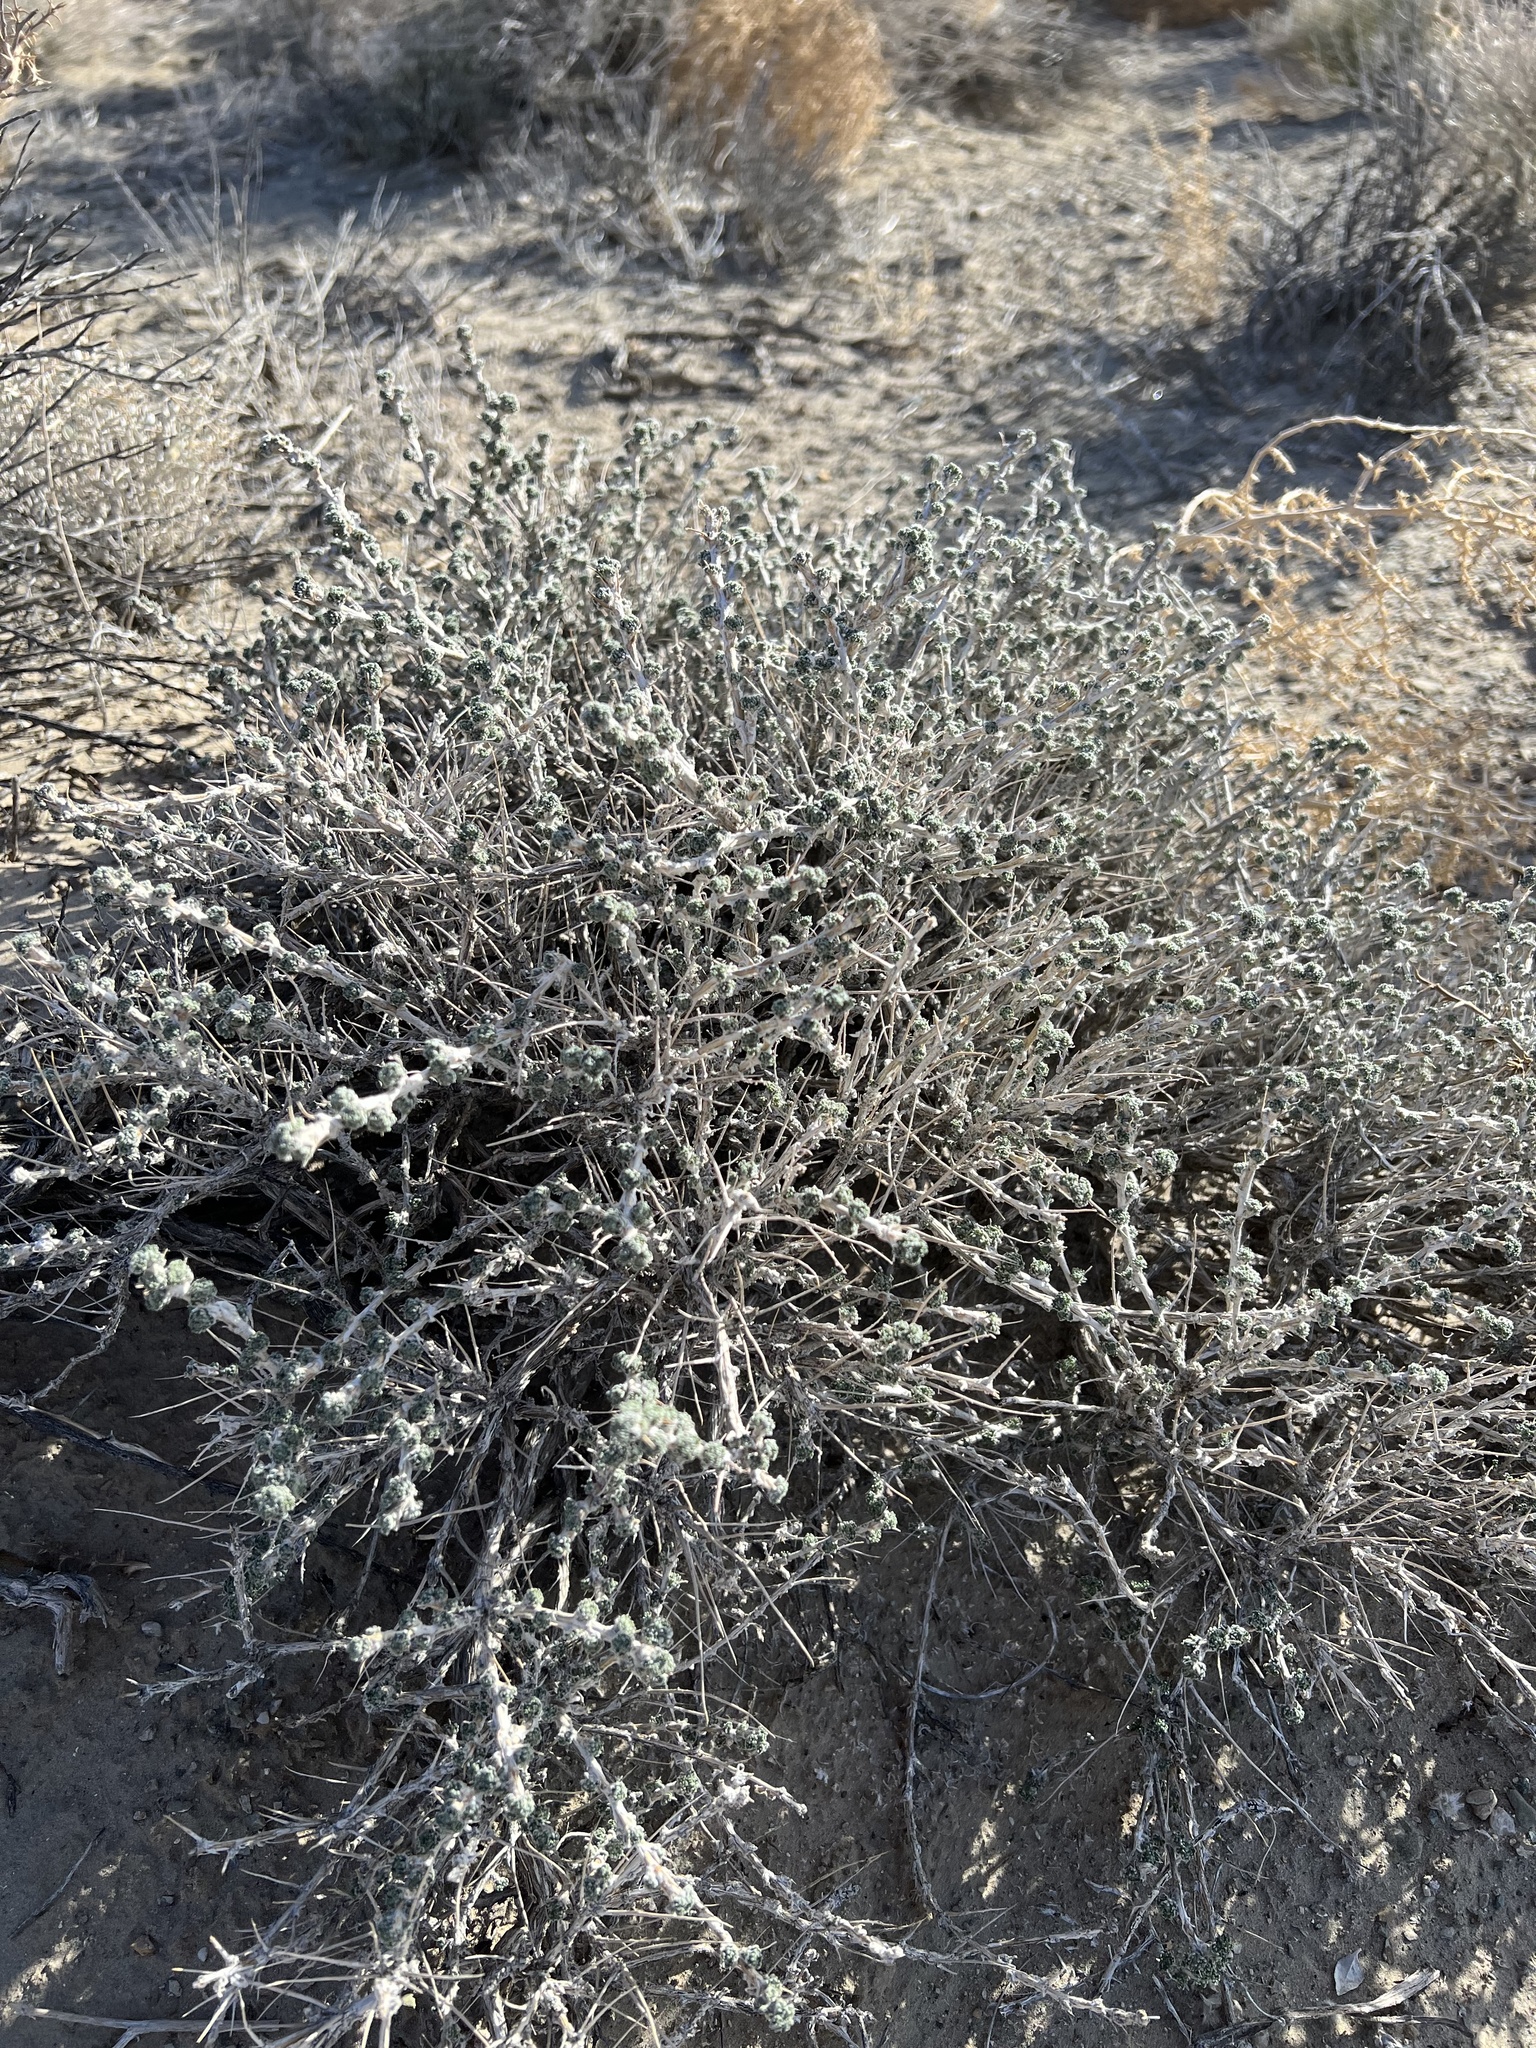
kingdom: Plantae
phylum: Tracheophyta
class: Magnoliopsida
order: Asterales
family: Asteraceae
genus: Artemisia
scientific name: Artemisia spinescens
